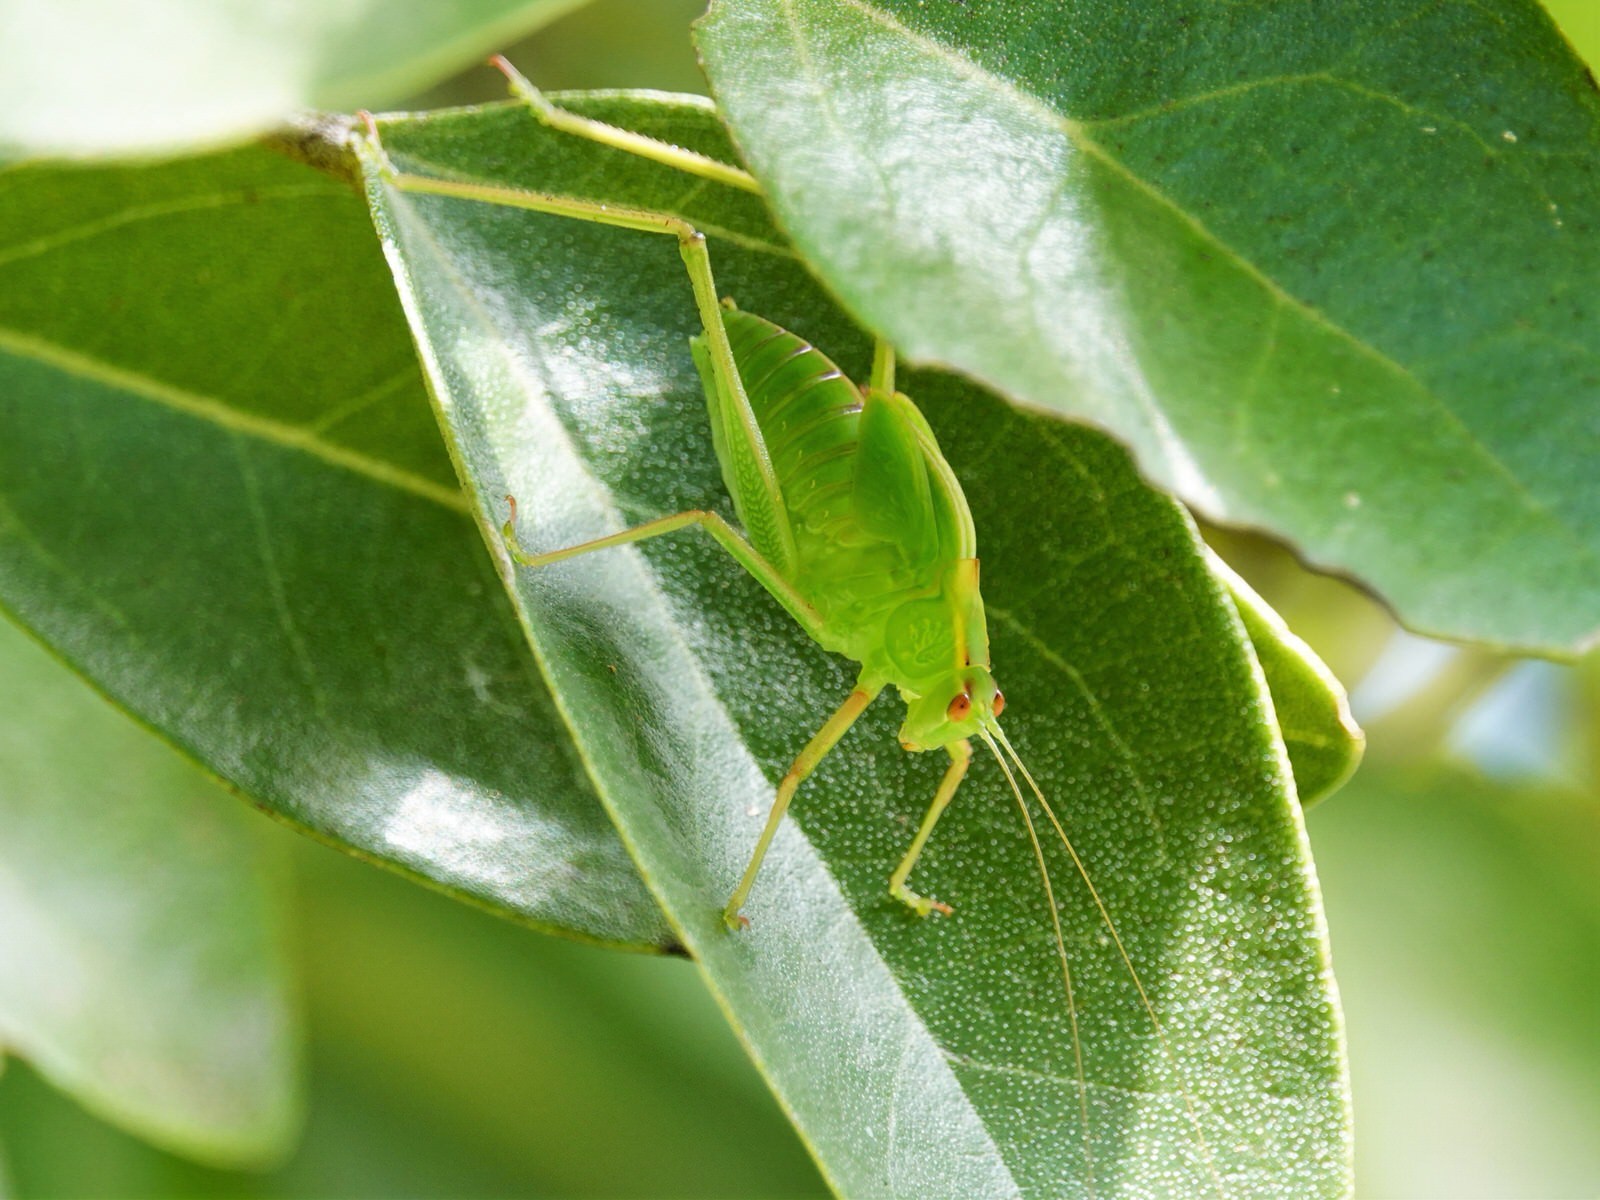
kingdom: Animalia
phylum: Arthropoda
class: Insecta
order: Orthoptera
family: Tettigoniidae
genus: Caedicia
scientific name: Caedicia simplex
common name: Common garden katydid
